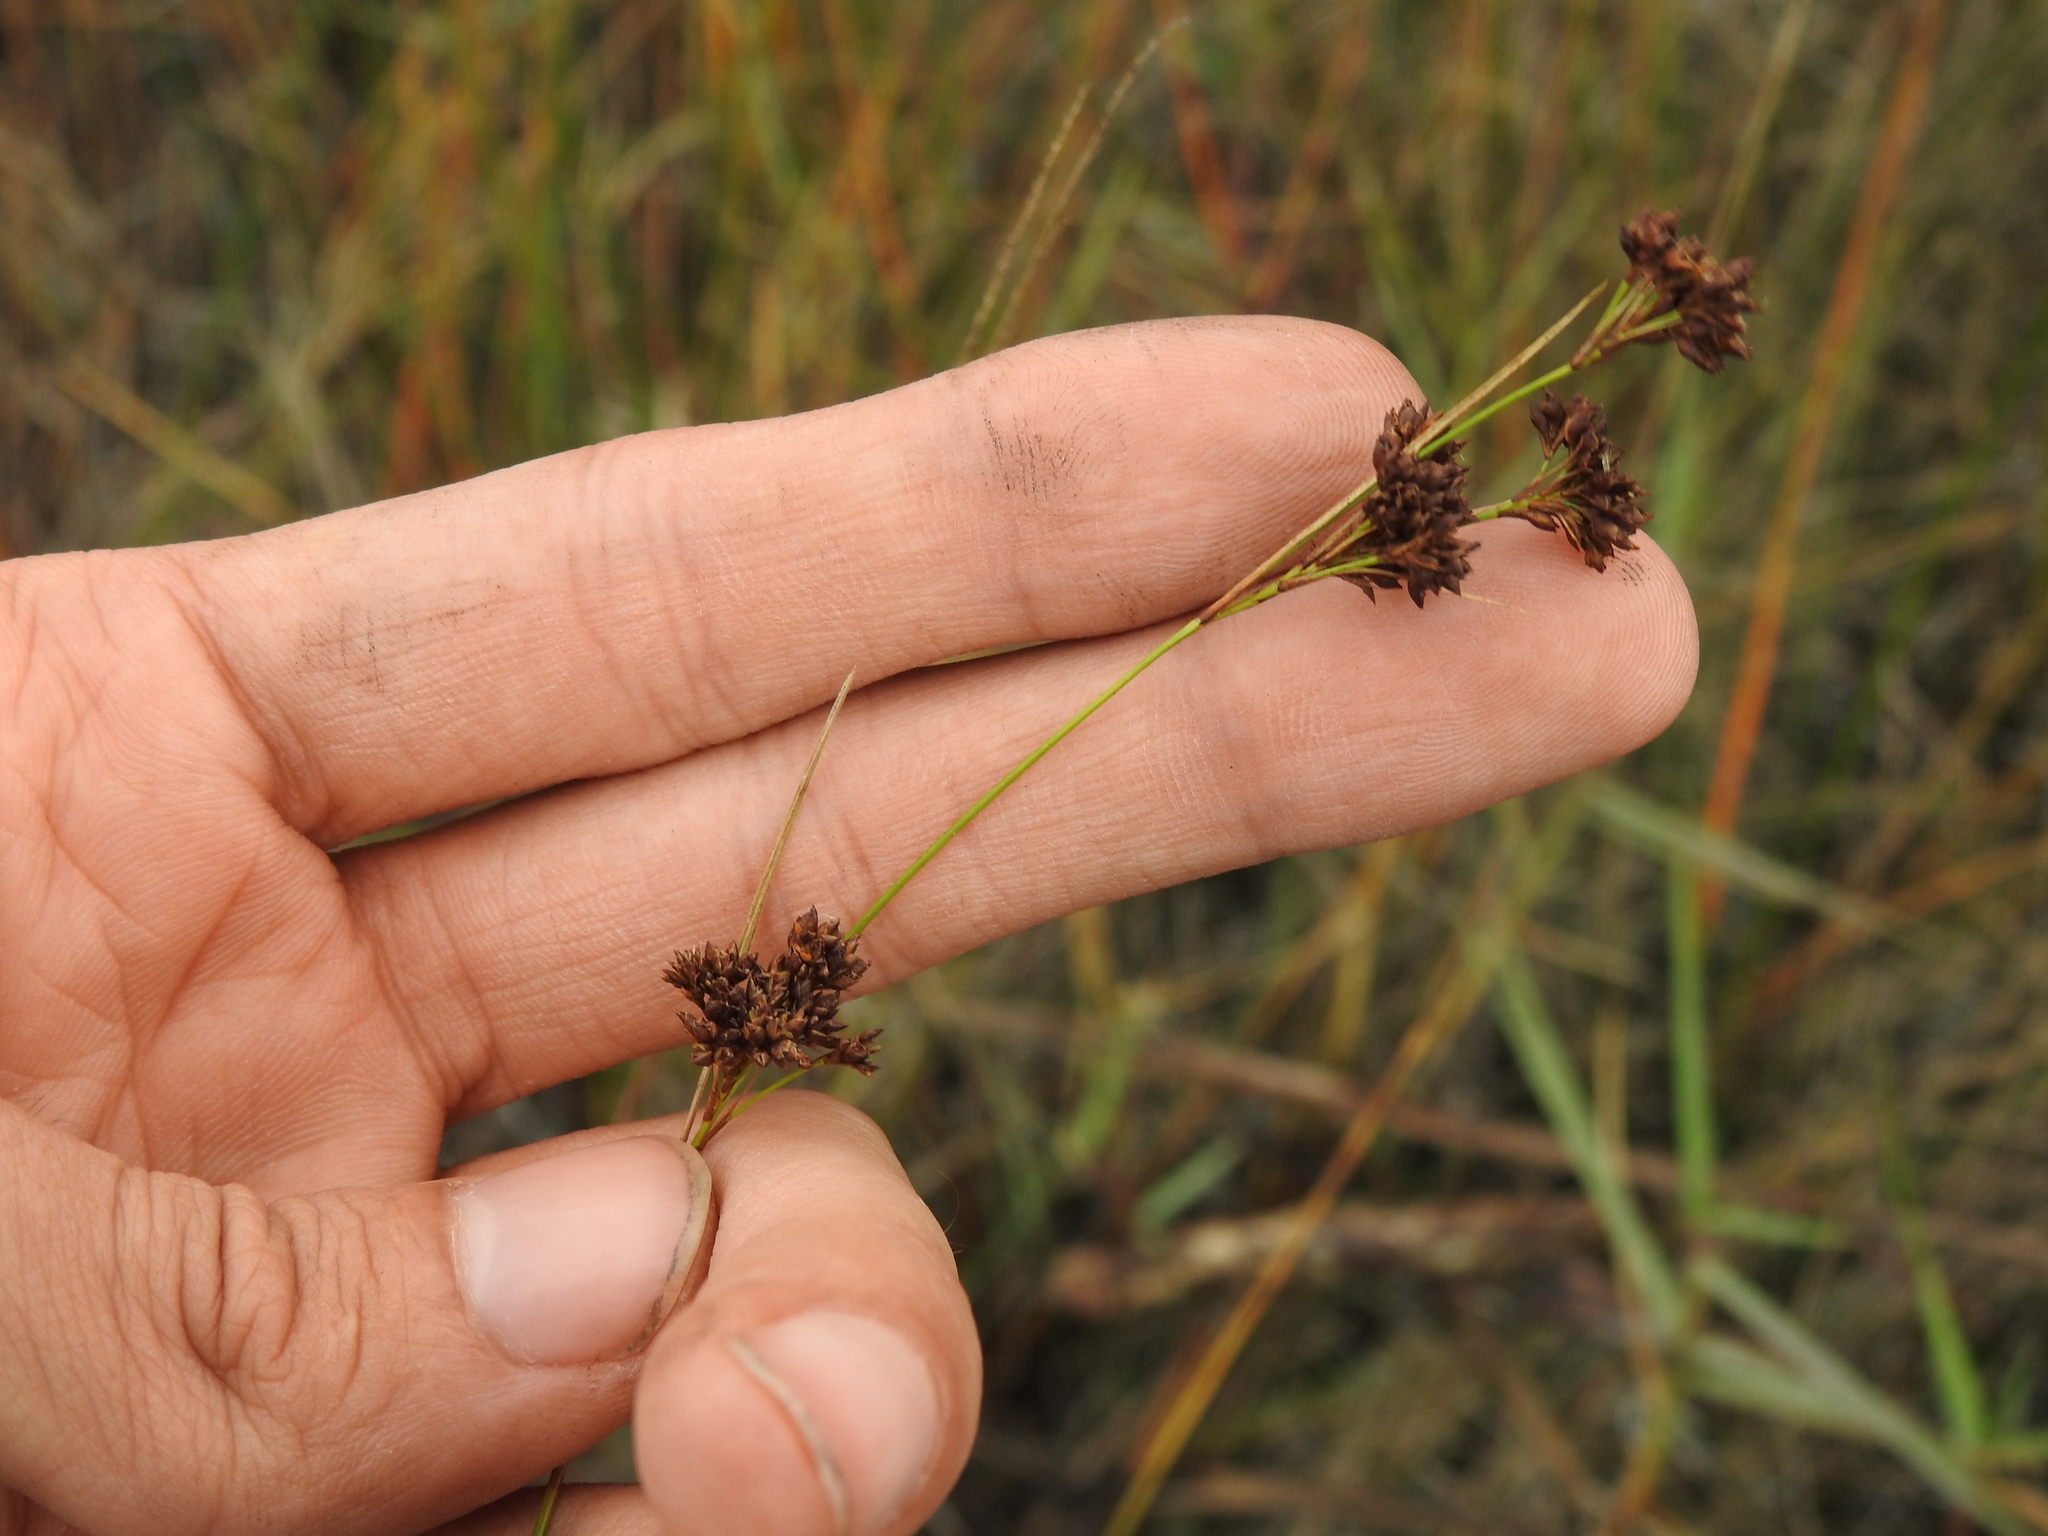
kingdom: Plantae
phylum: Tracheophyta
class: Liliopsida
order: Poales
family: Cyperaceae
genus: Rhynchospora
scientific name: Rhynchospora microcarpa
